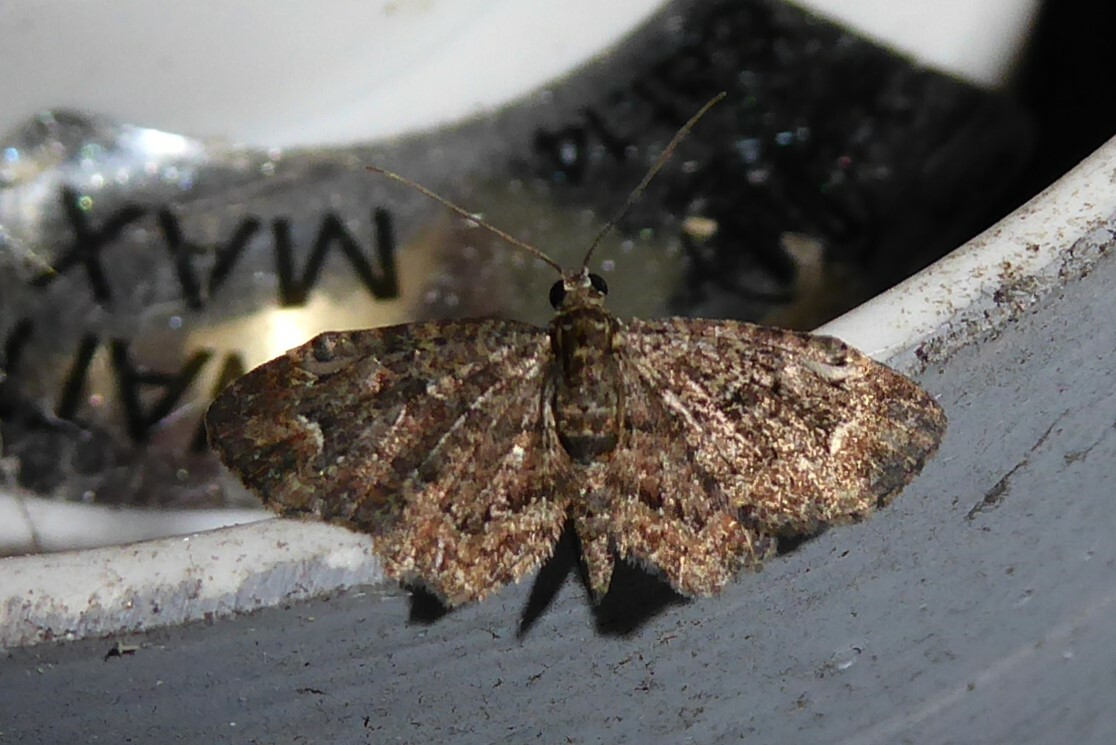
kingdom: Animalia
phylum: Arthropoda
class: Insecta
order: Lepidoptera
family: Geometridae
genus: Pasiphilodes
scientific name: Pasiphilodes testulata
